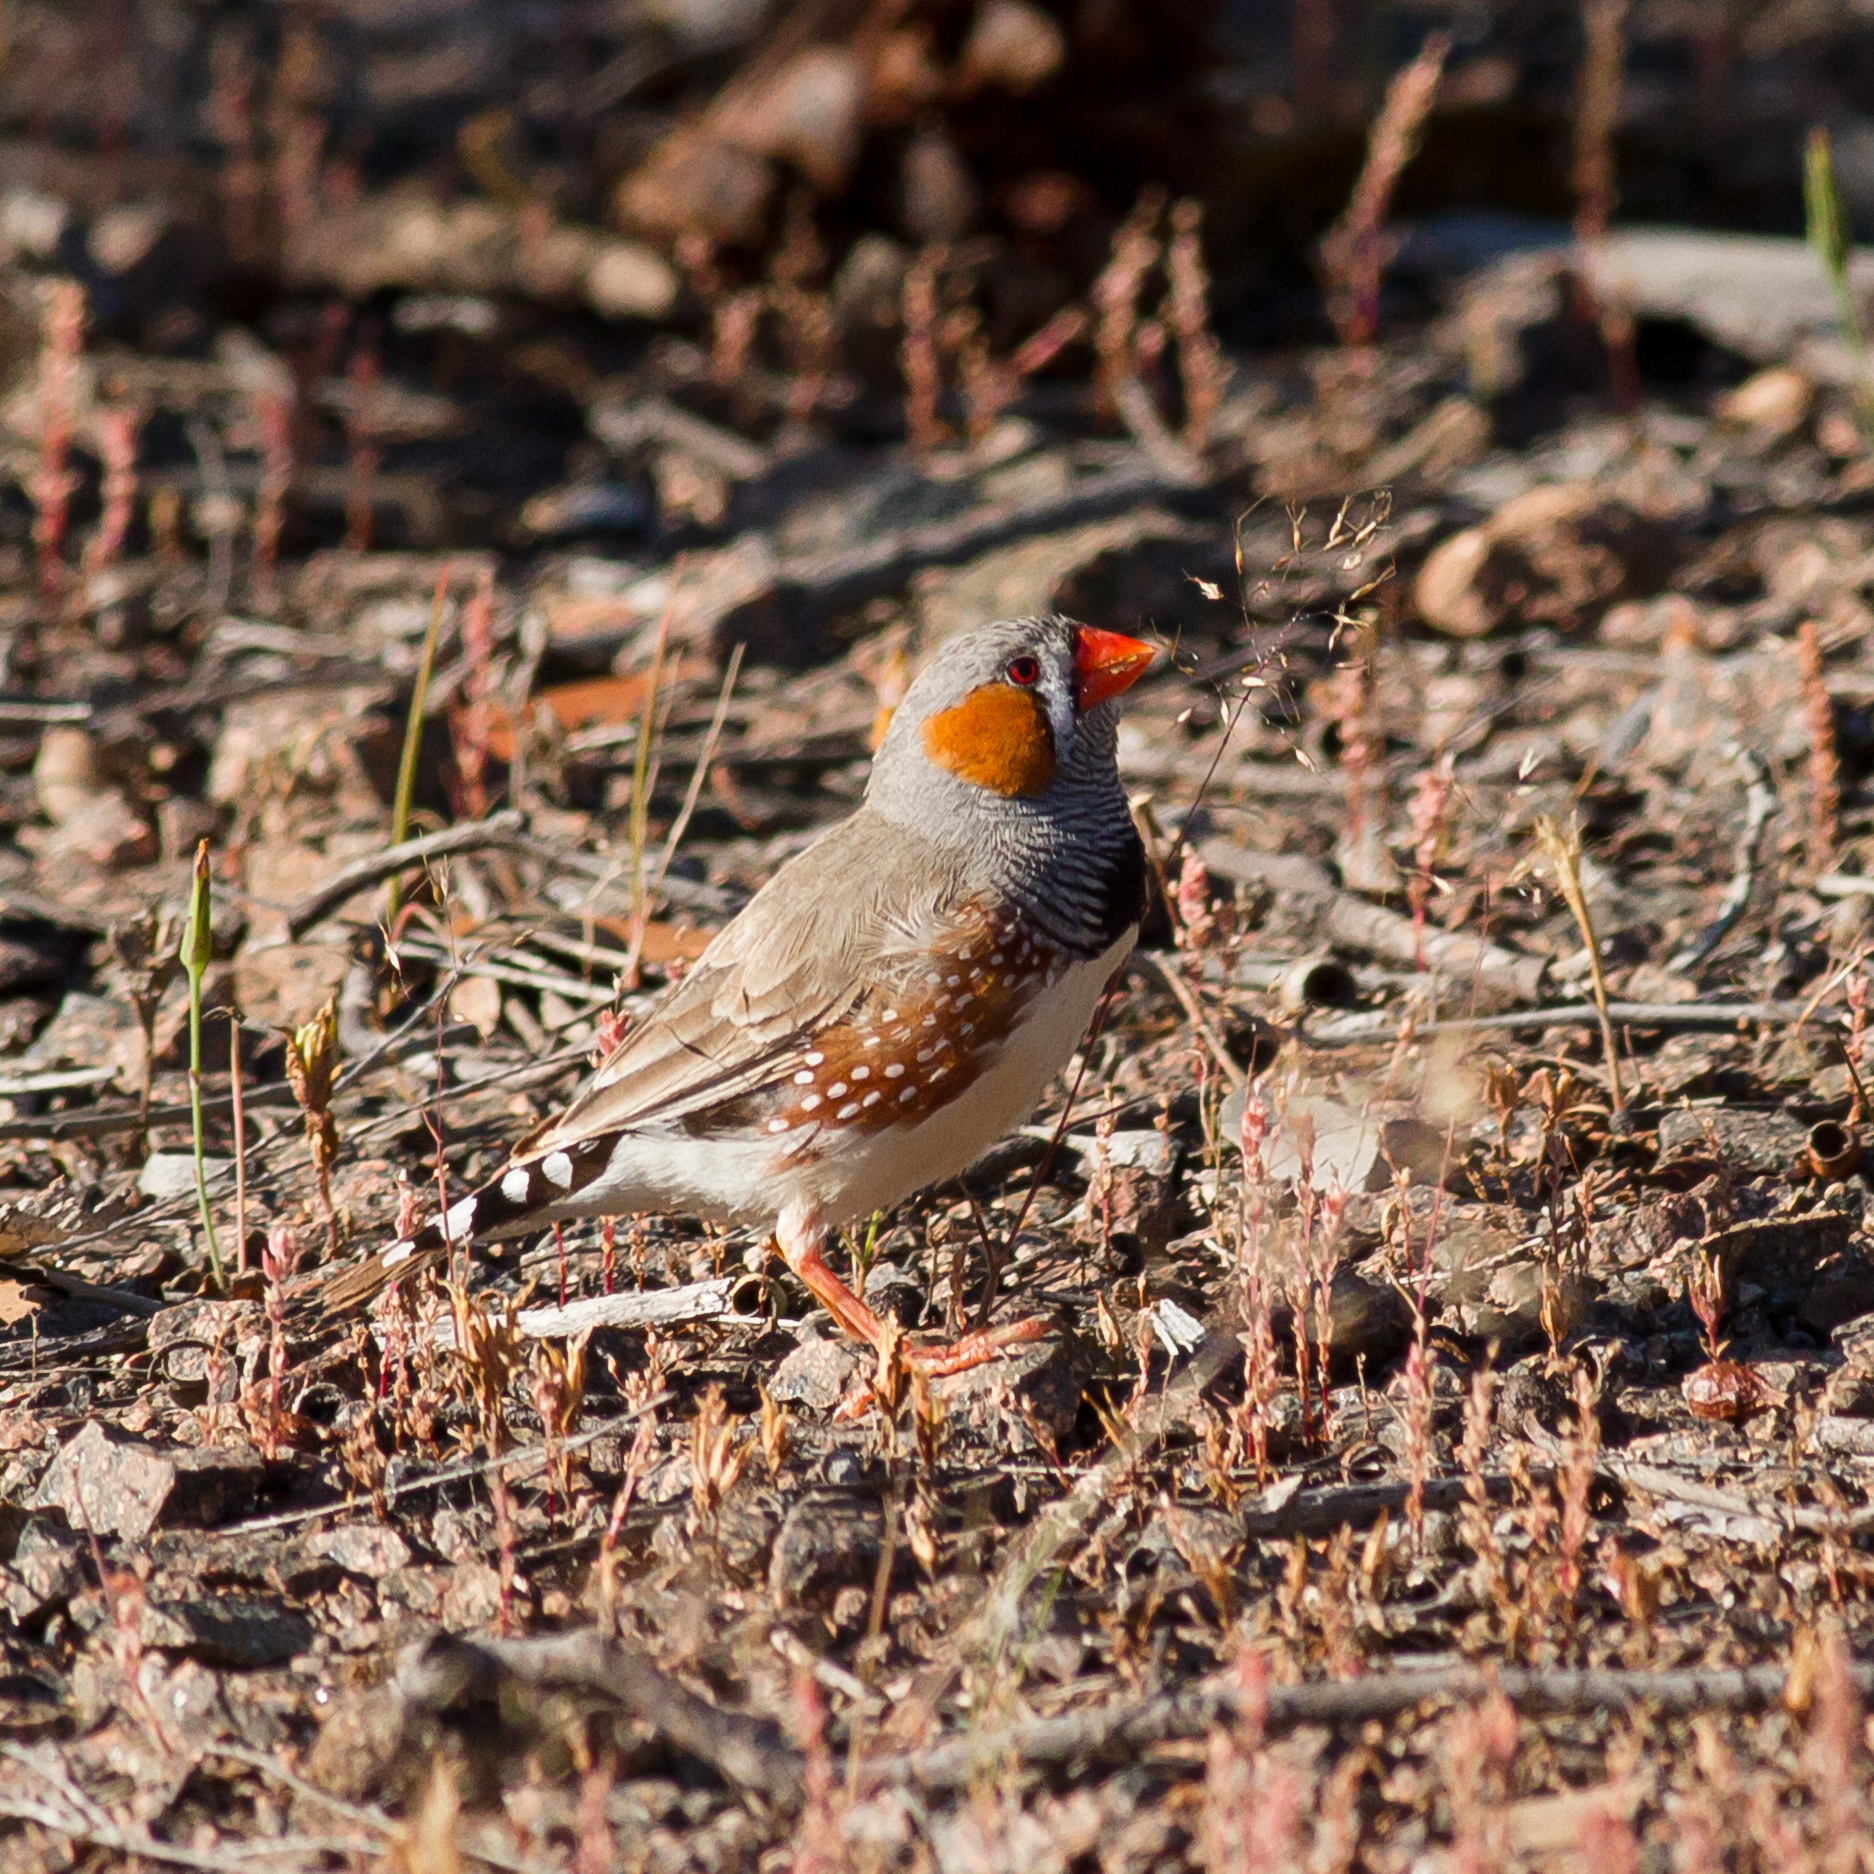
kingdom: Animalia
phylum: Chordata
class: Aves
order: Passeriformes
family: Estrildidae
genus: Taeniopygia
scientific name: Taeniopygia guttata
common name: Zebra finch
